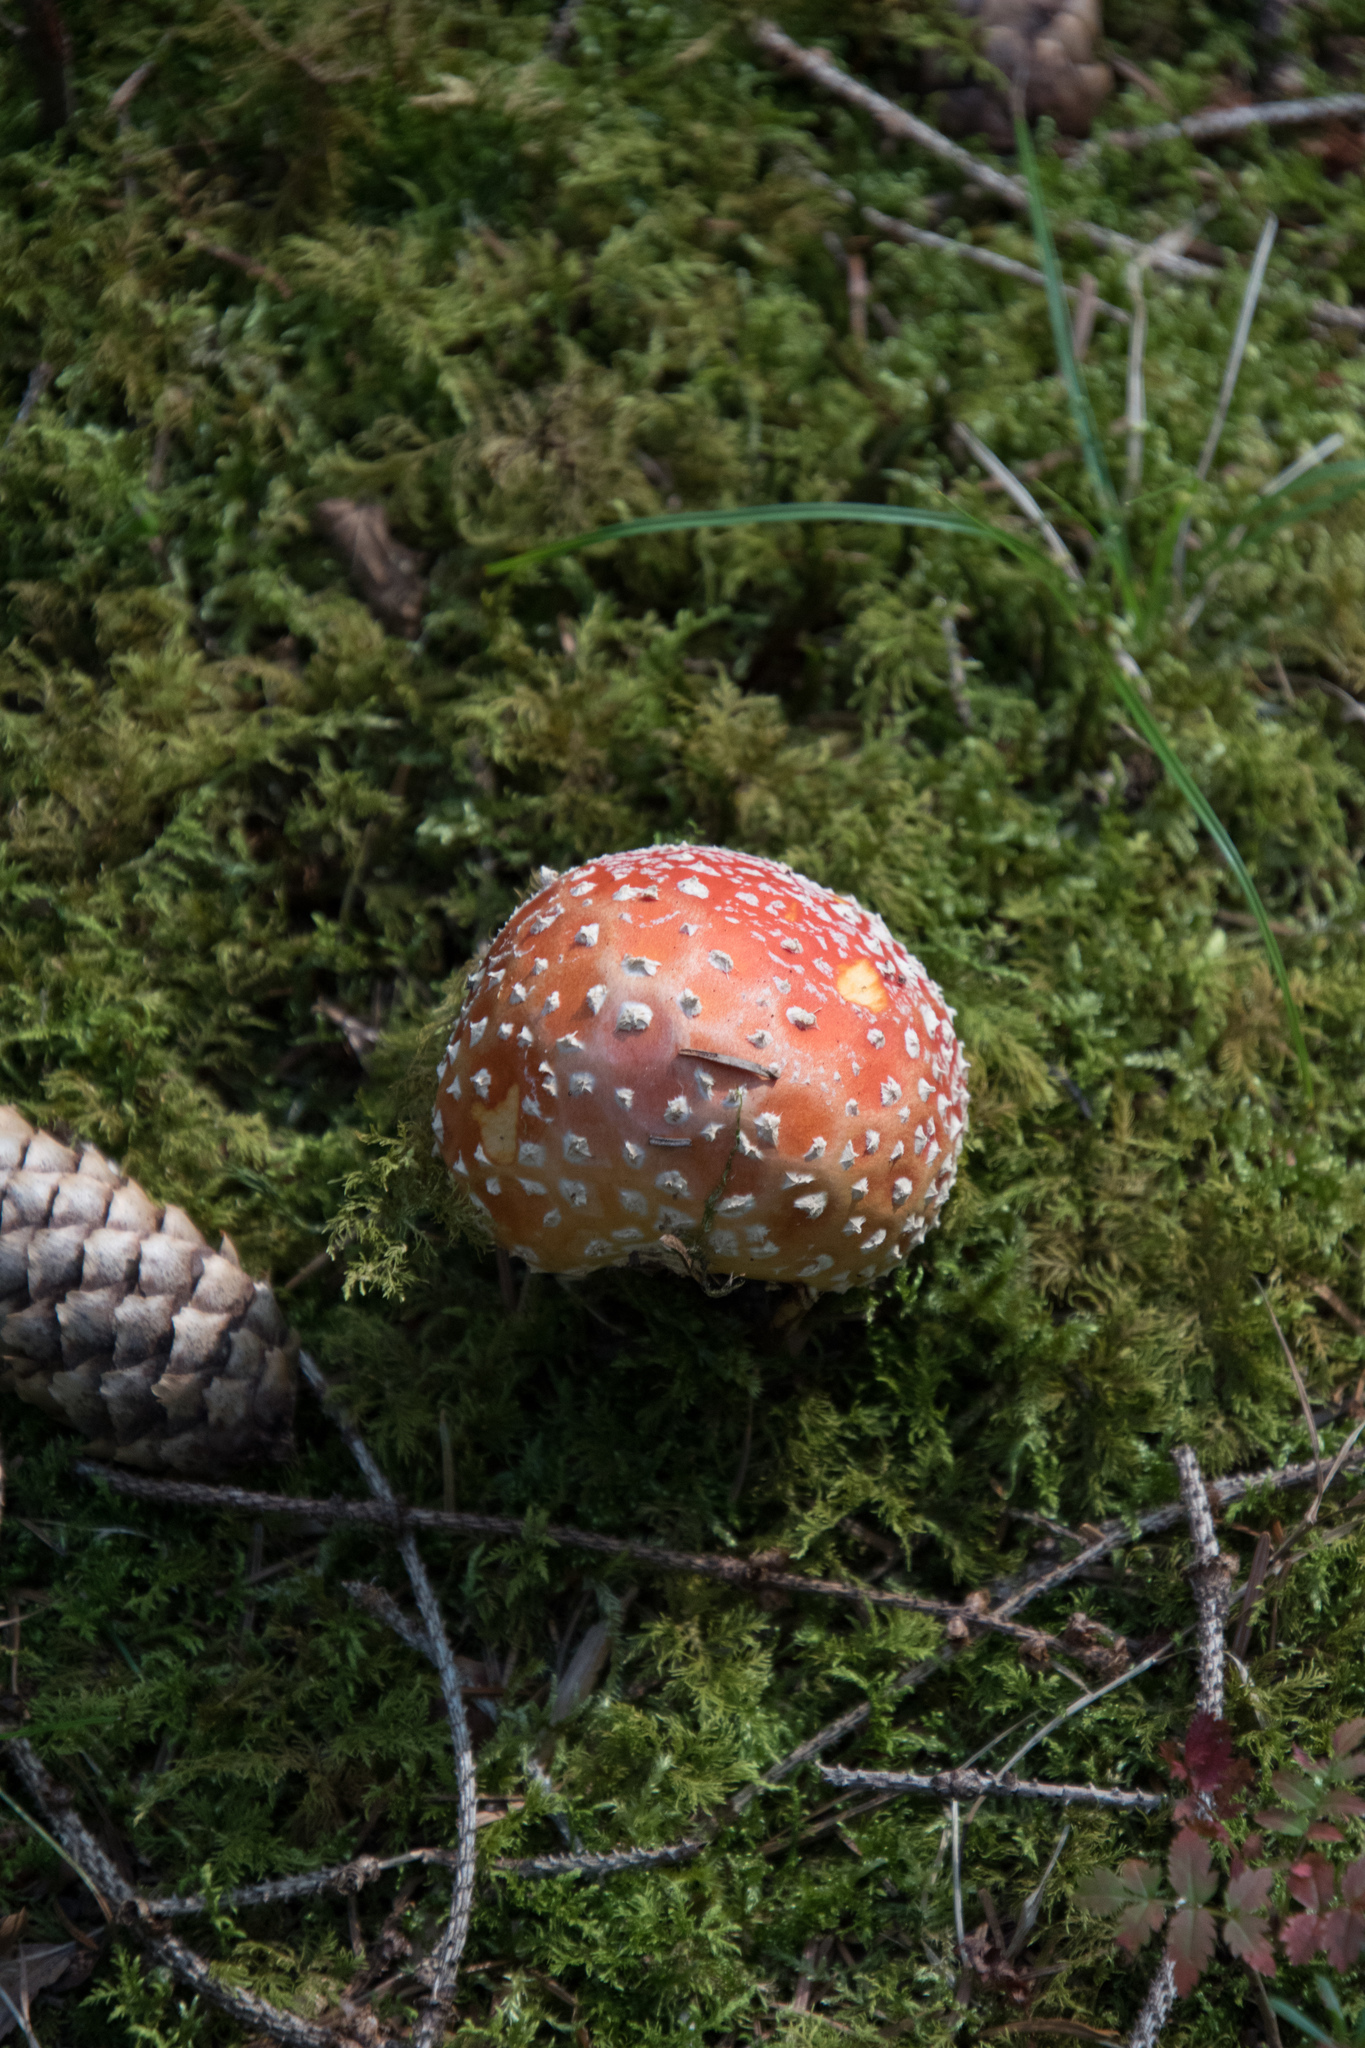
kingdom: Fungi
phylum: Basidiomycota
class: Agaricomycetes
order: Agaricales
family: Amanitaceae
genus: Amanita
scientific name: Amanita muscaria
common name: Fly agaric
